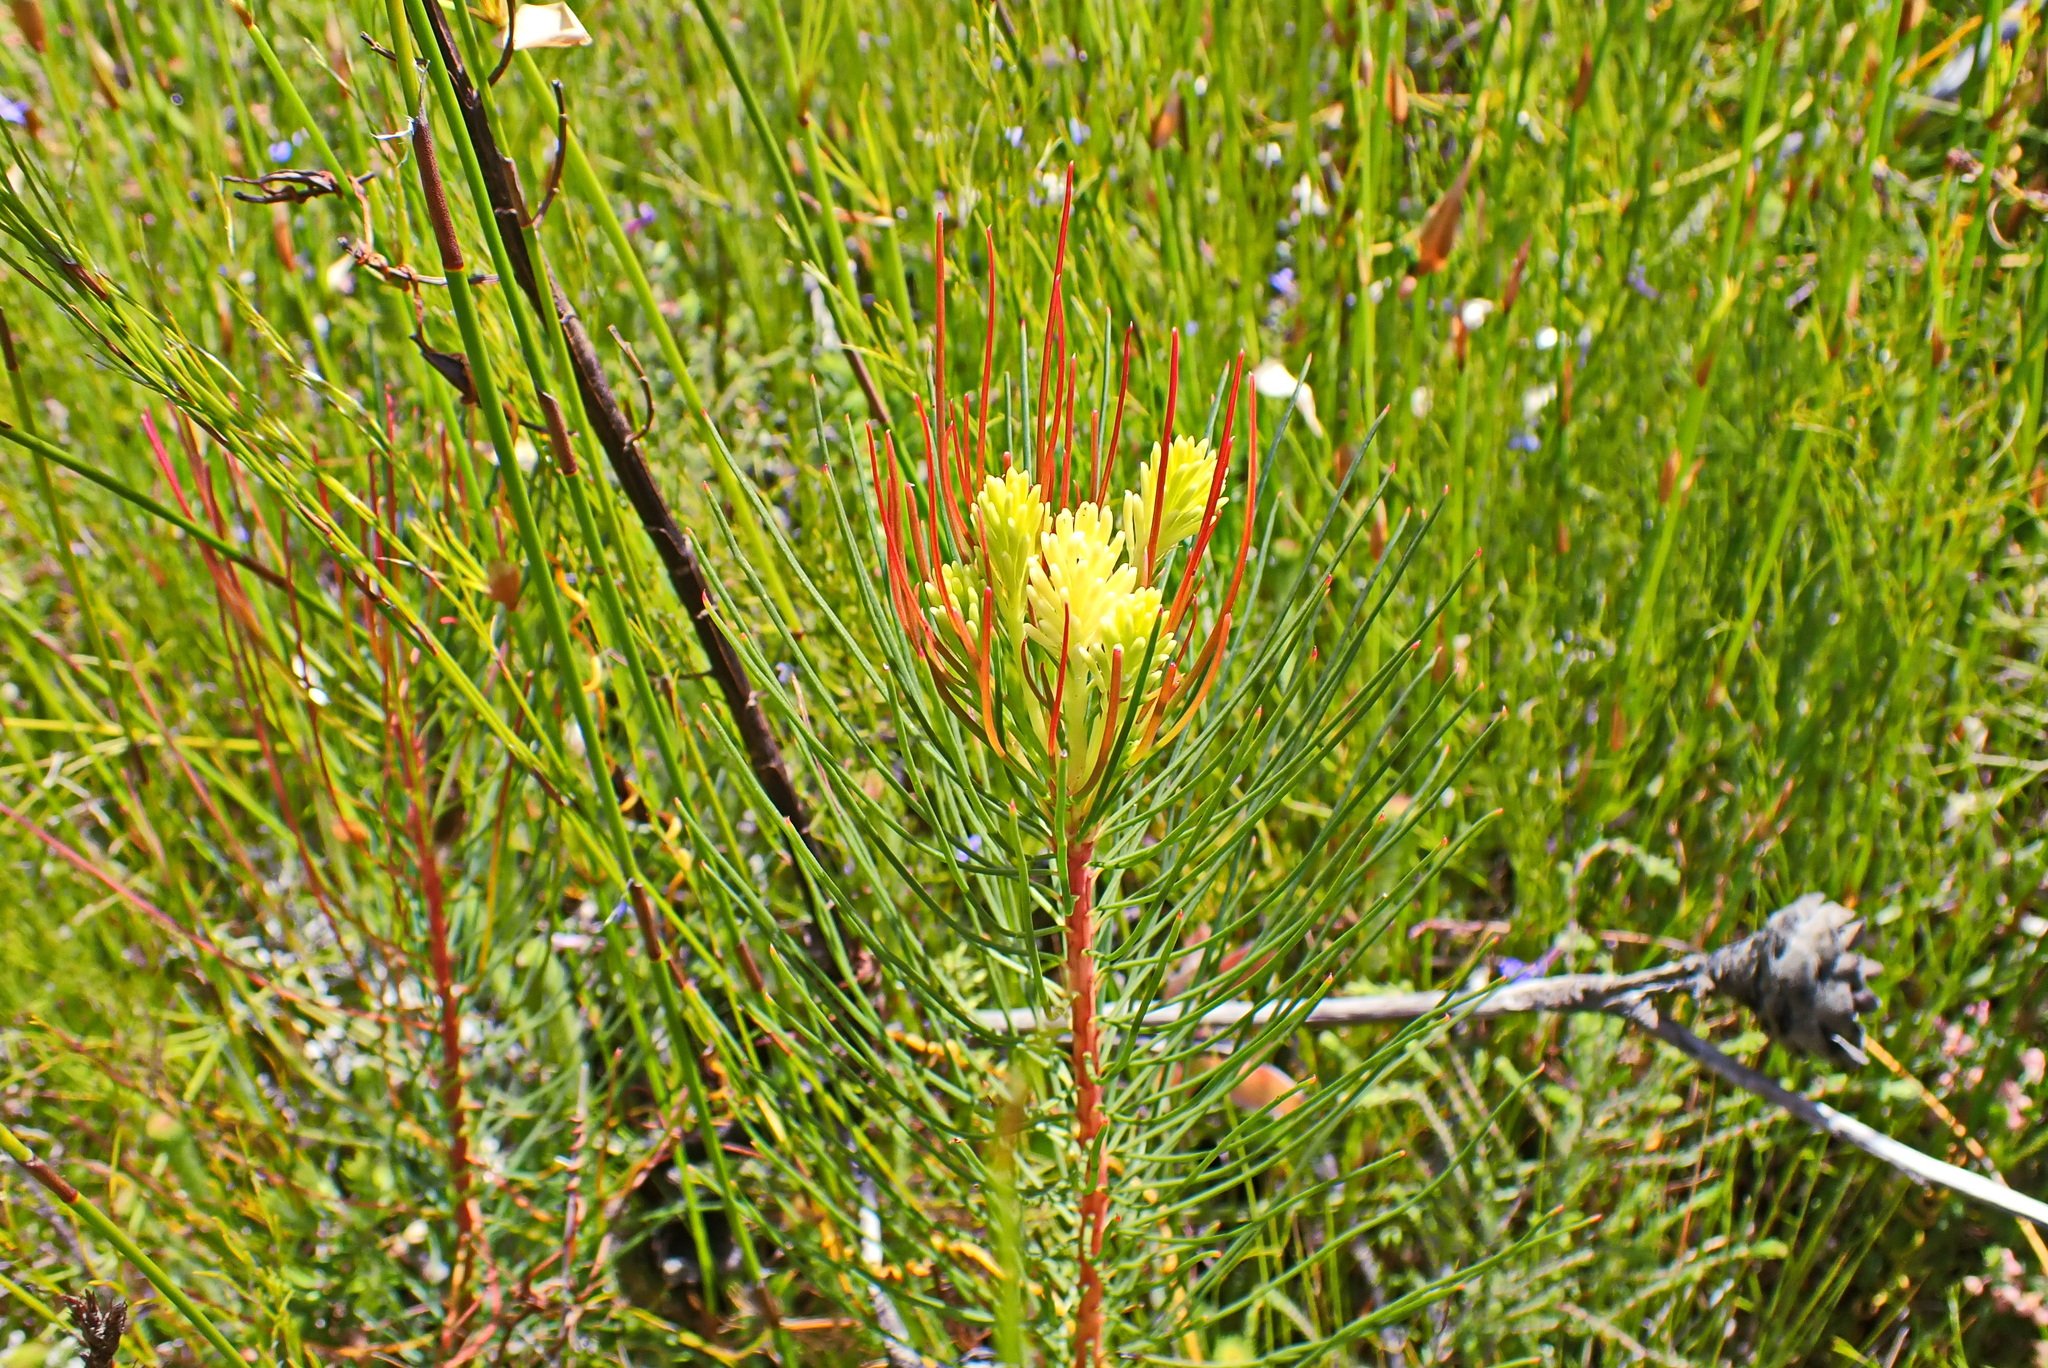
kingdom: Plantae
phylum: Tracheophyta
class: Magnoliopsida
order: Proteales
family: Proteaceae
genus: Aulax
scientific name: Aulax cancellata
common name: Channel-leaf featherbush
